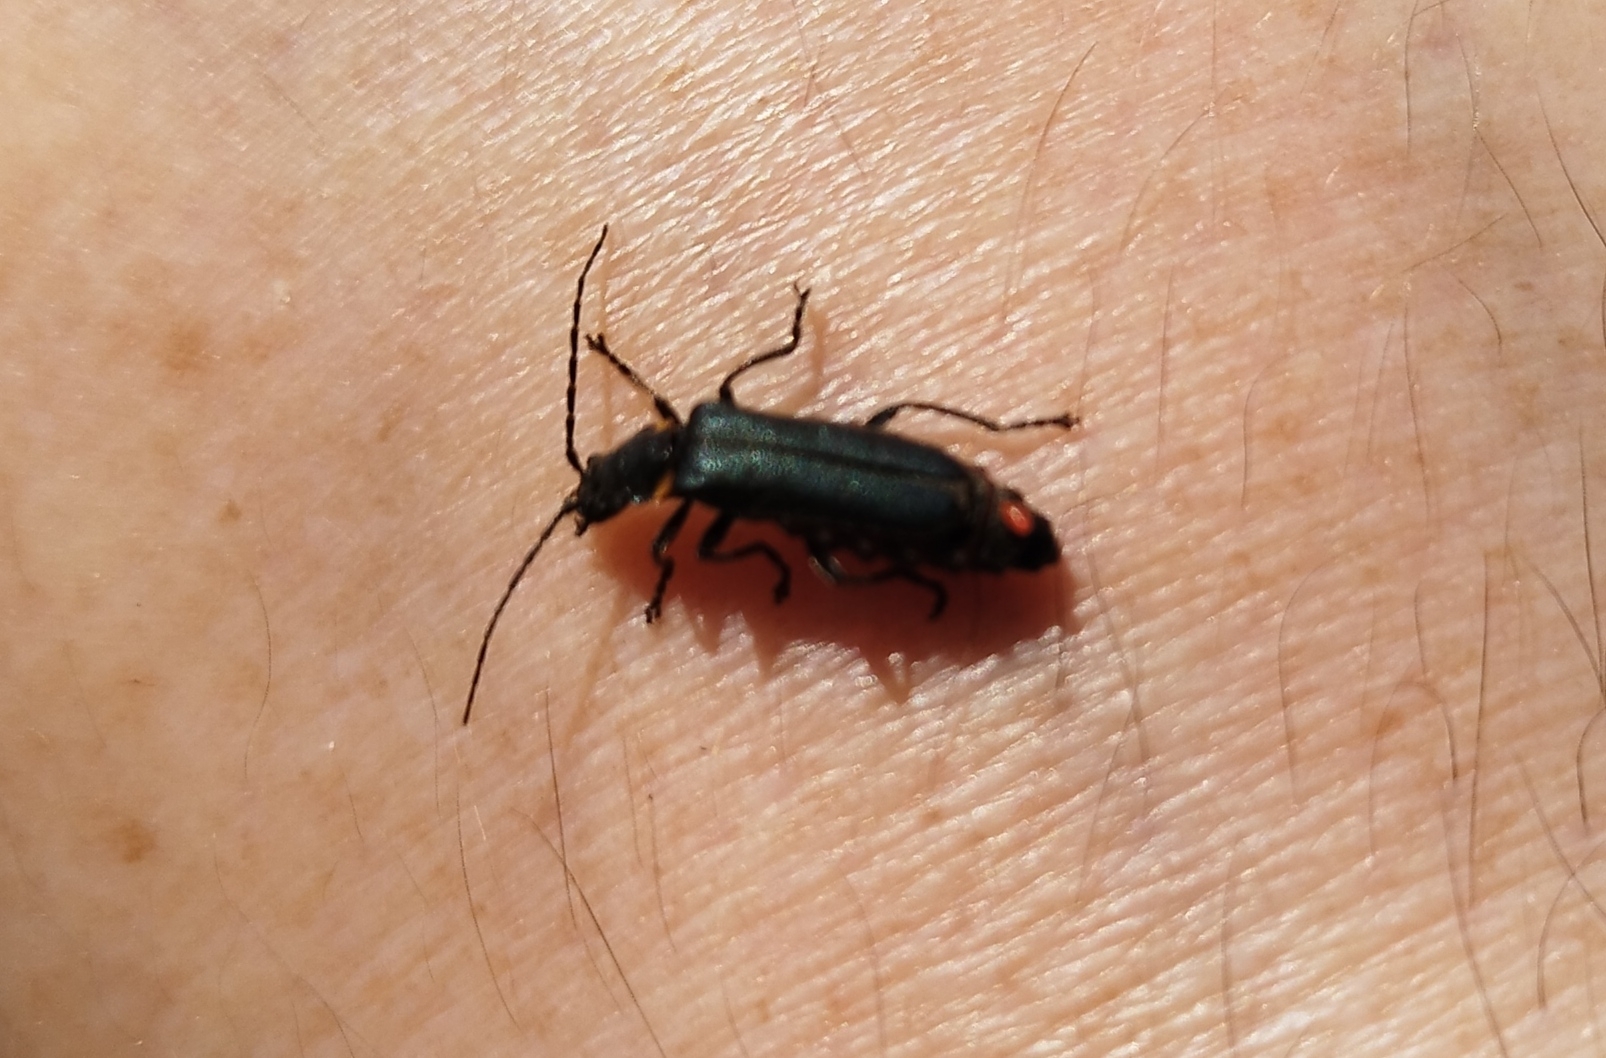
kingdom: Animalia
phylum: Arthropoda
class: Insecta
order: Coleoptera
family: Cantharidae
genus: Chauliognathus
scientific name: Chauliognathus
